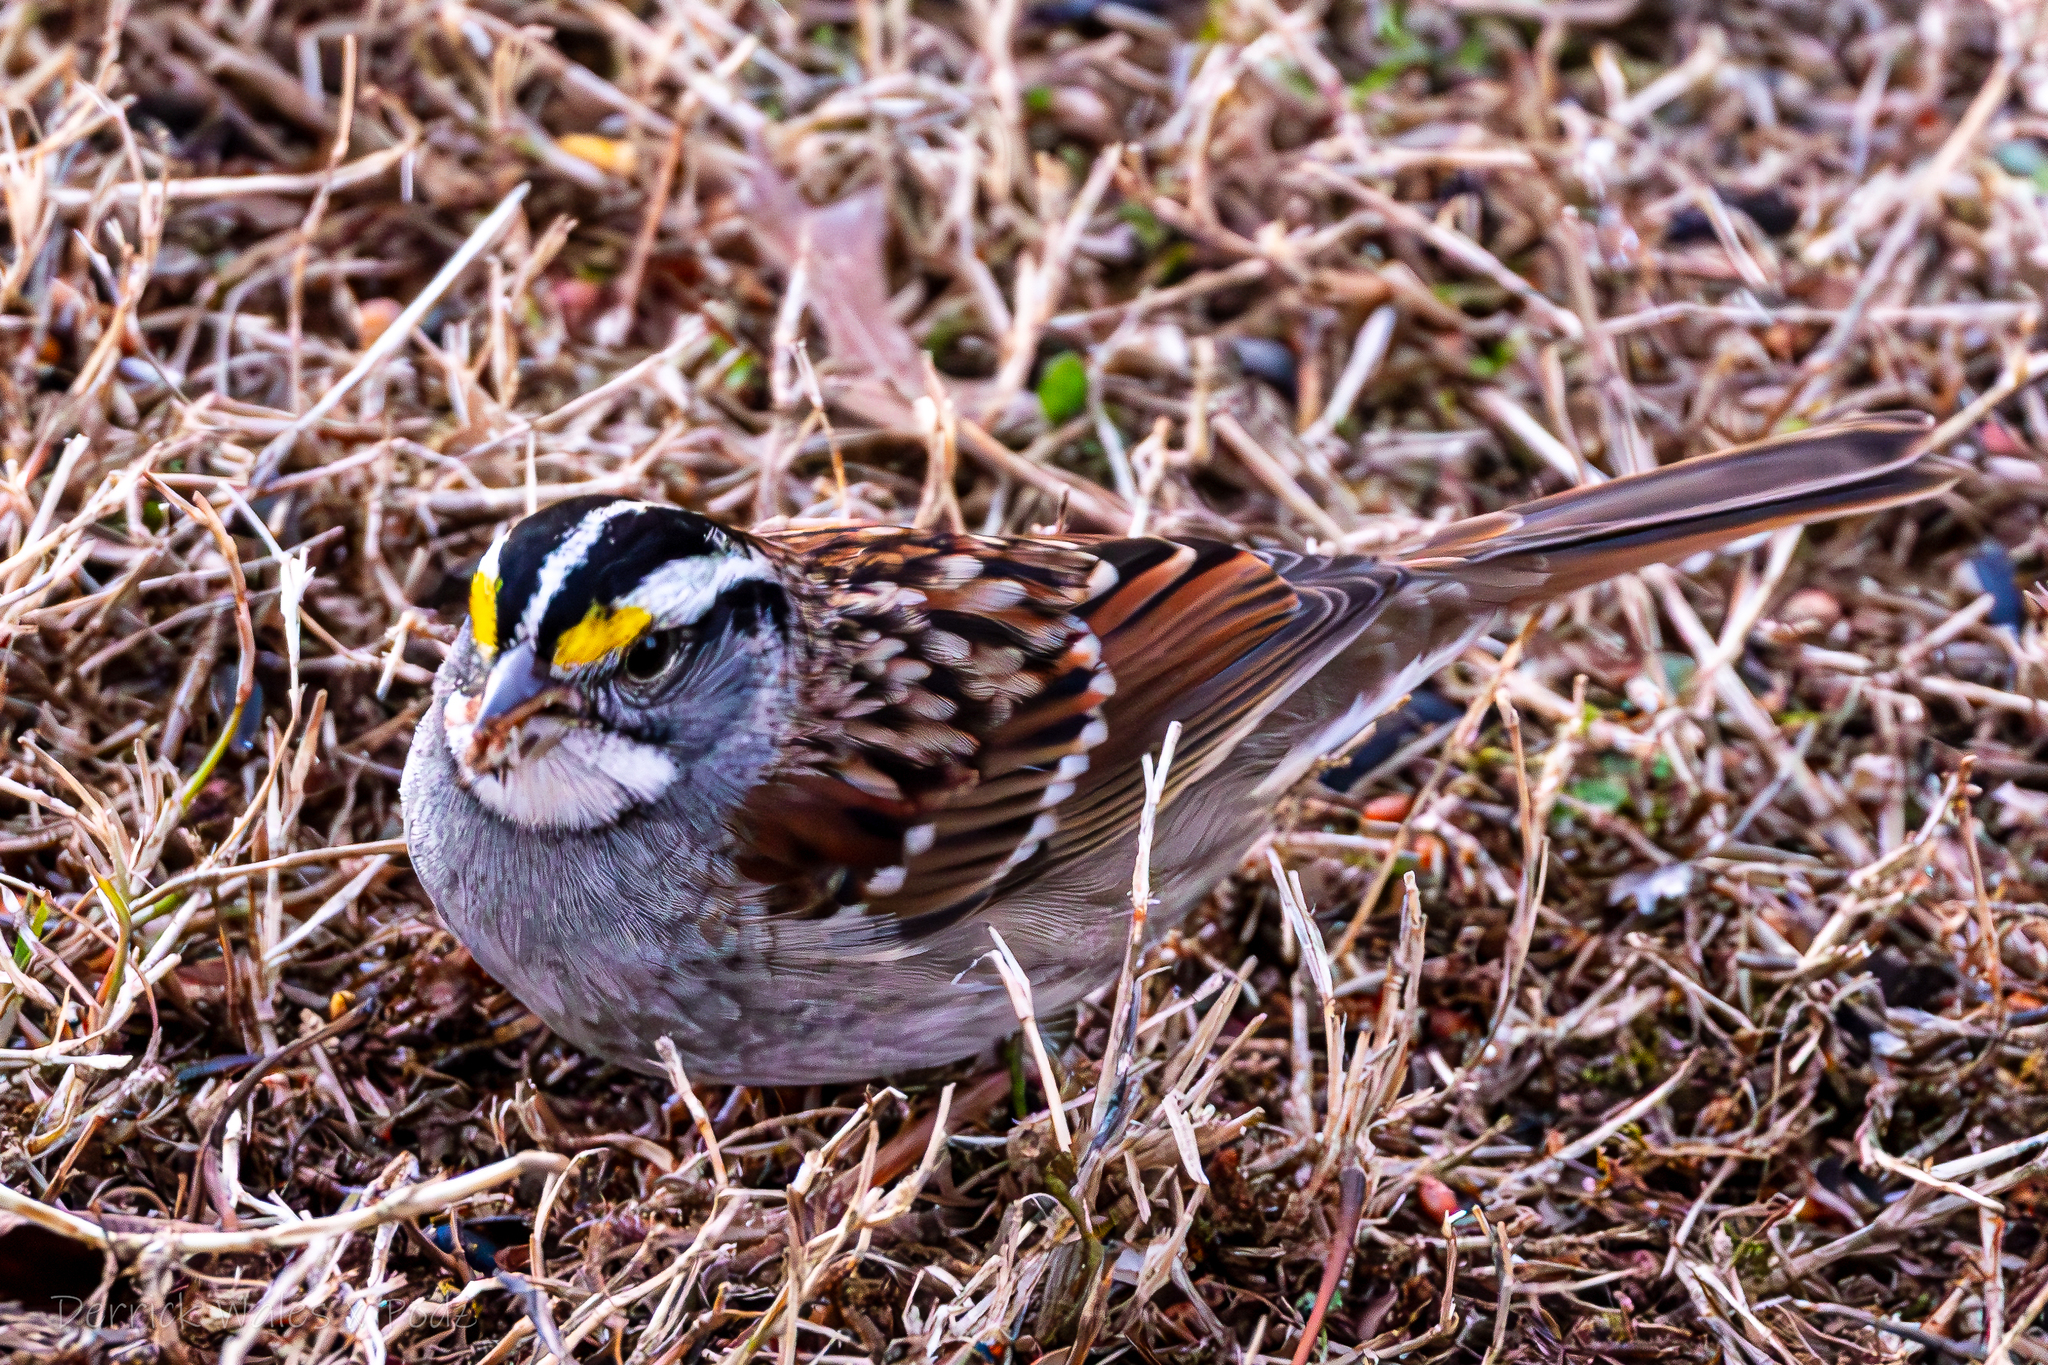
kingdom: Animalia
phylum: Chordata
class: Aves
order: Passeriformes
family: Passerellidae
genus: Zonotrichia
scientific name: Zonotrichia albicollis
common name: White-throated sparrow
